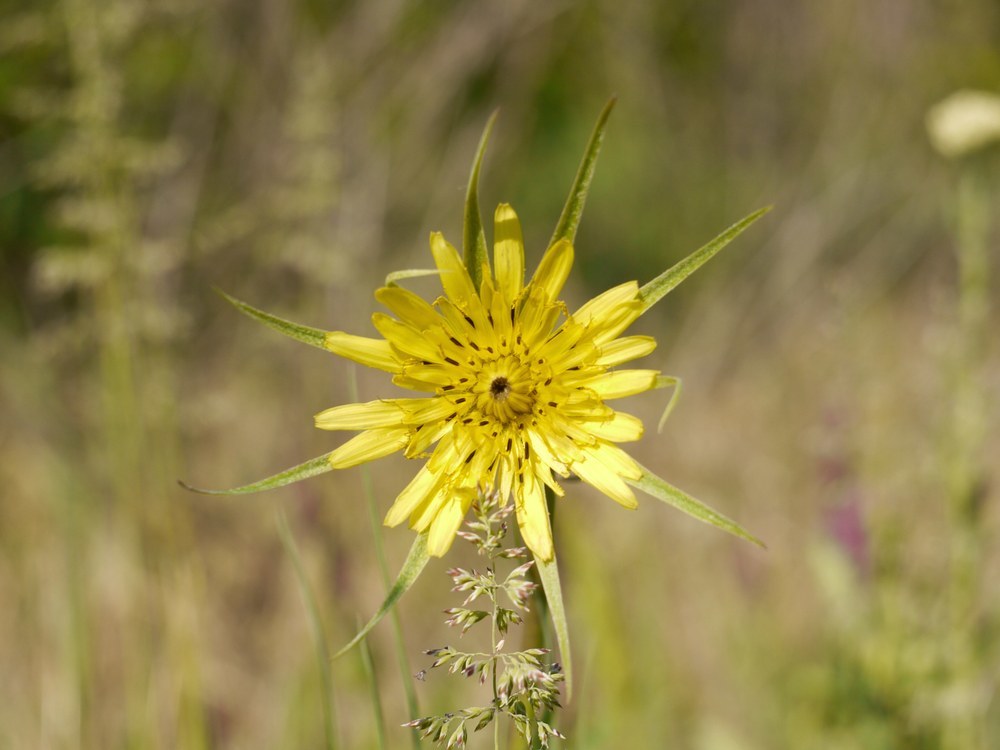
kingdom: Plantae
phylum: Tracheophyta
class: Magnoliopsida
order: Asterales
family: Asteraceae
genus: Tragopogon
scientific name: Tragopogon dubius
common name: Yellow salsify
